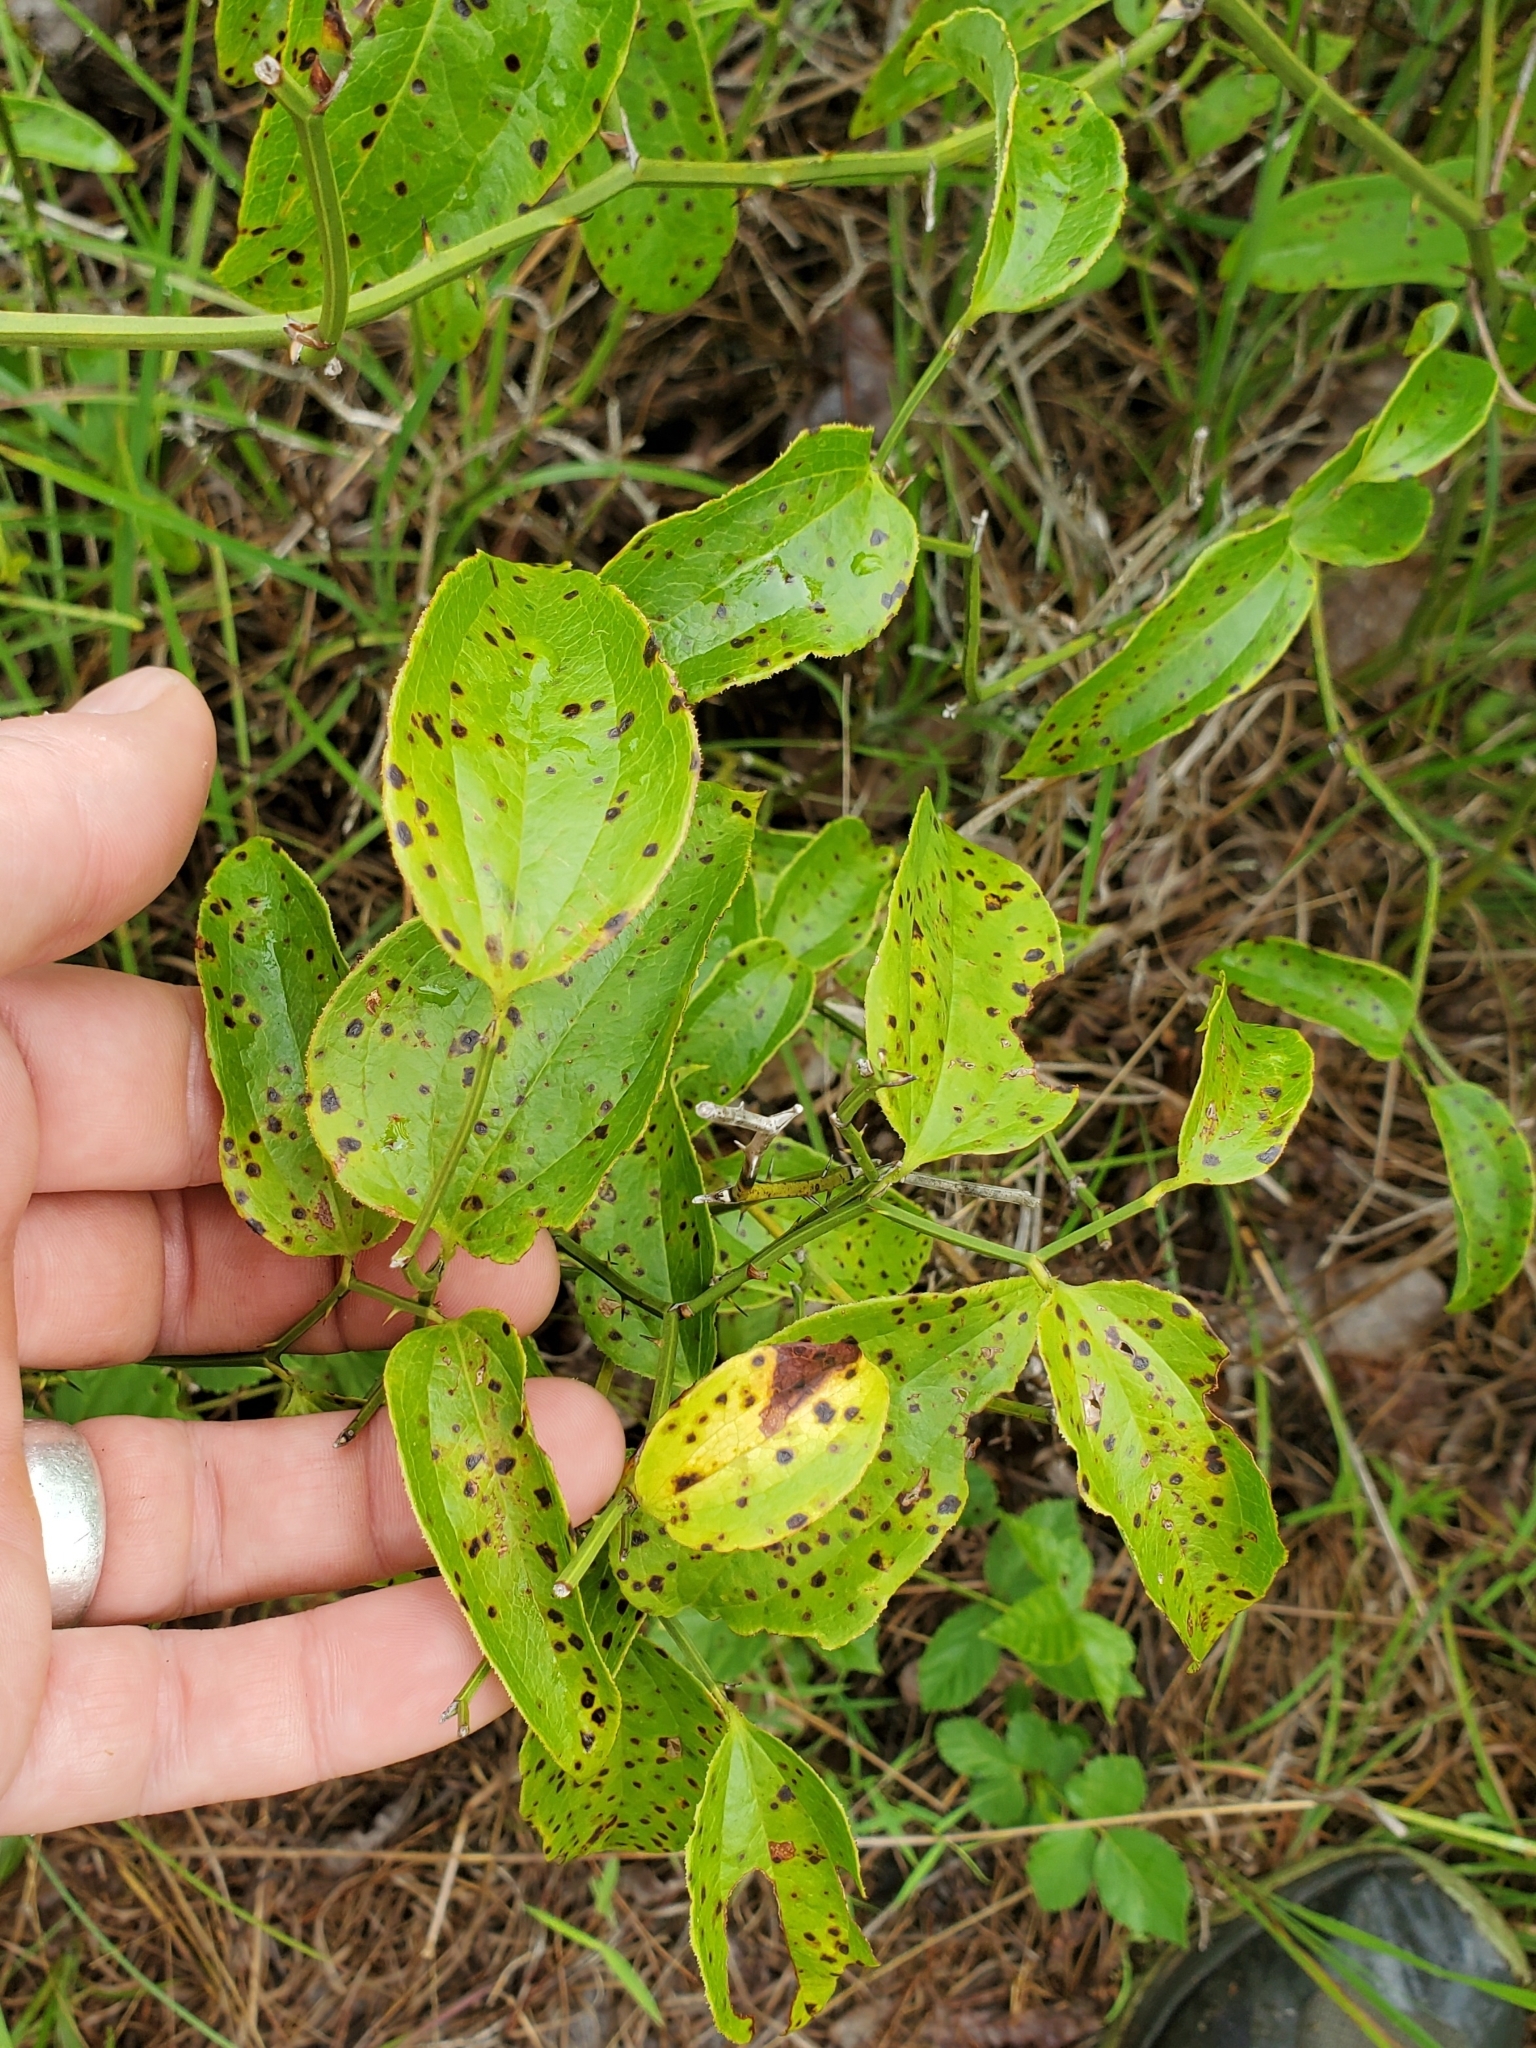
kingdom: Plantae
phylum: Tracheophyta
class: Liliopsida
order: Liliales
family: Smilacaceae
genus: Smilax
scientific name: Smilax rotundifolia
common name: Bullbriar
